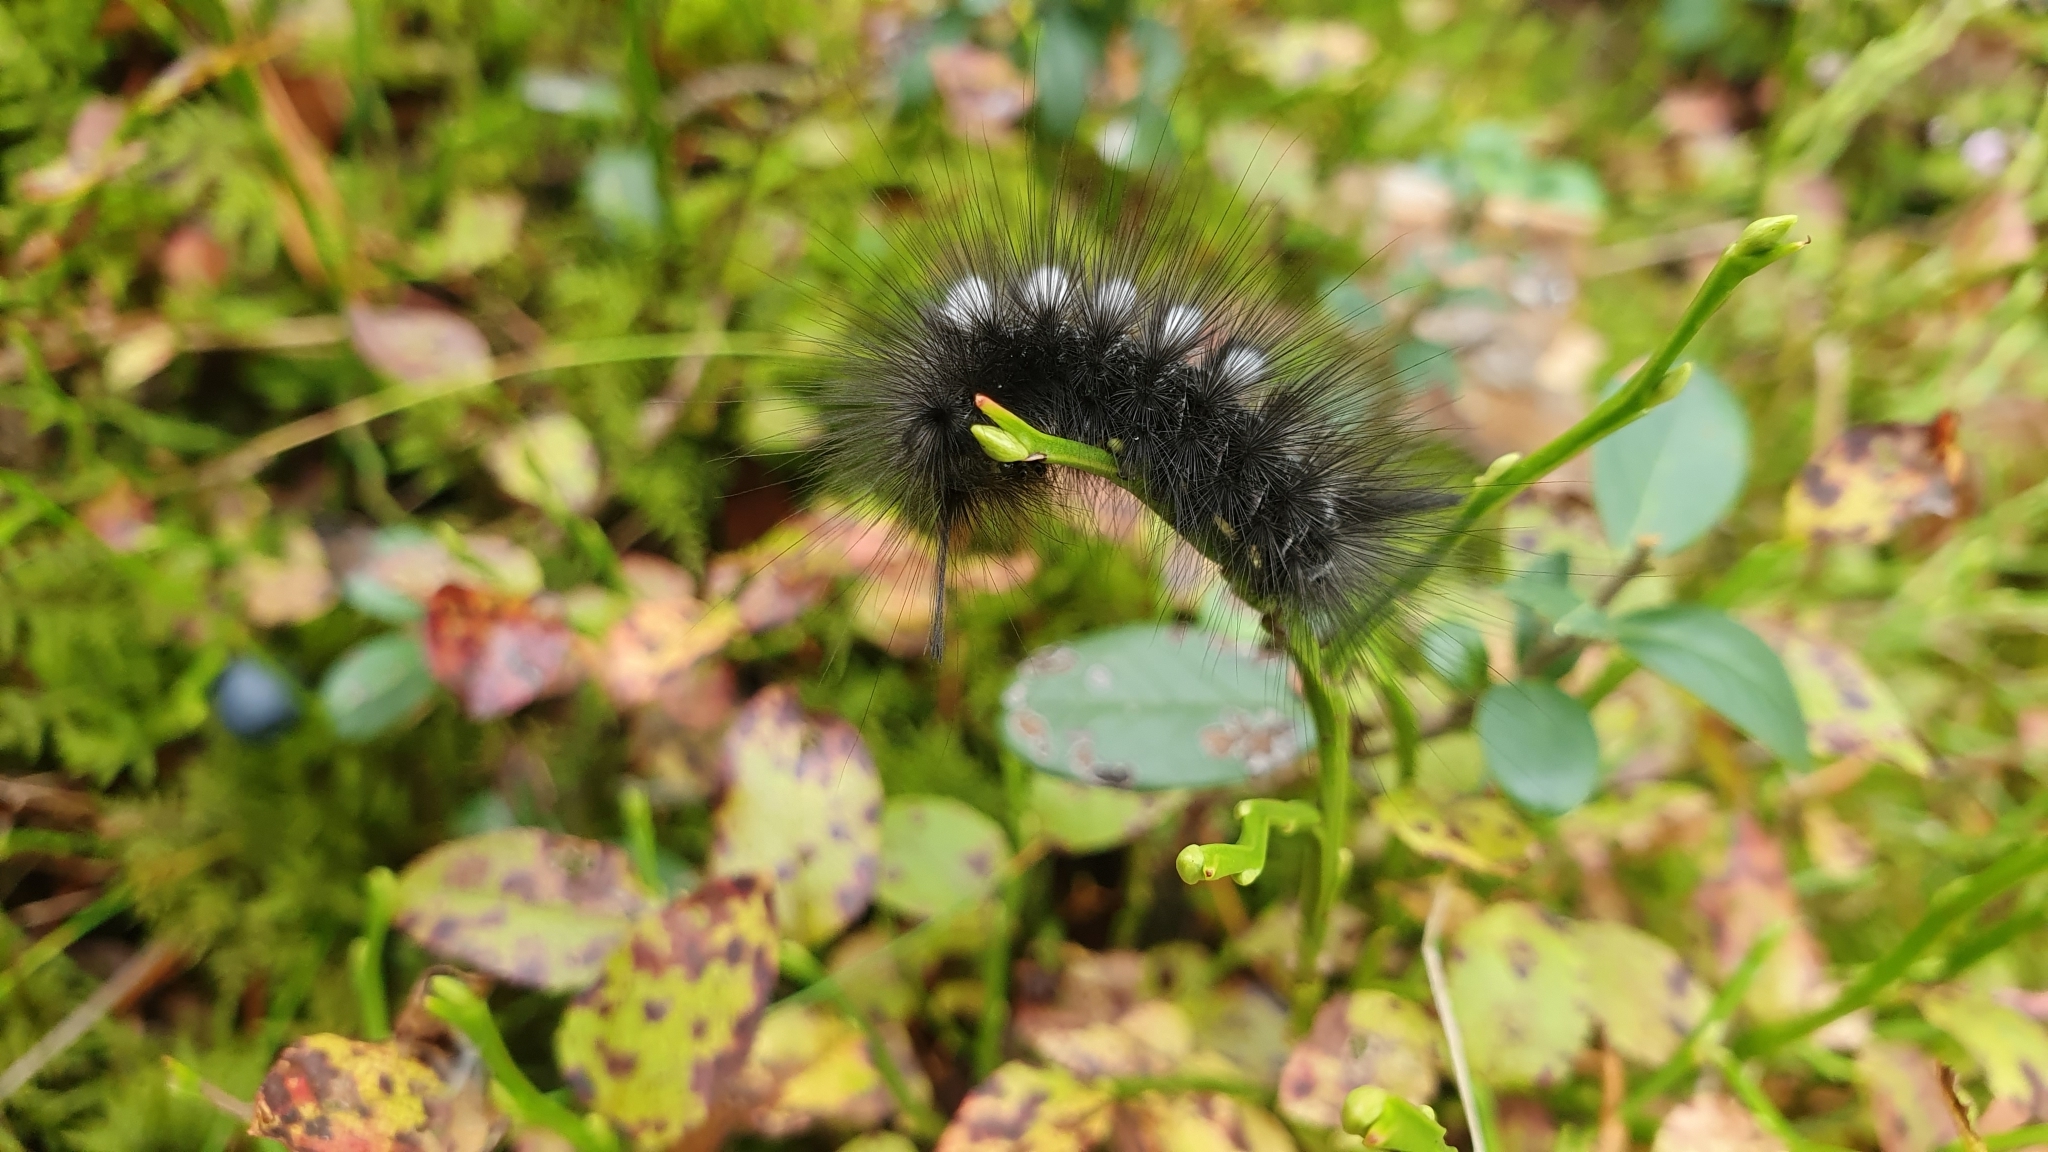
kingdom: Animalia
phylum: Arthropoda
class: Insecta
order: Lepidoptera
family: Erebidae
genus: Gynaephora
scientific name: Gynaephora selenitica
